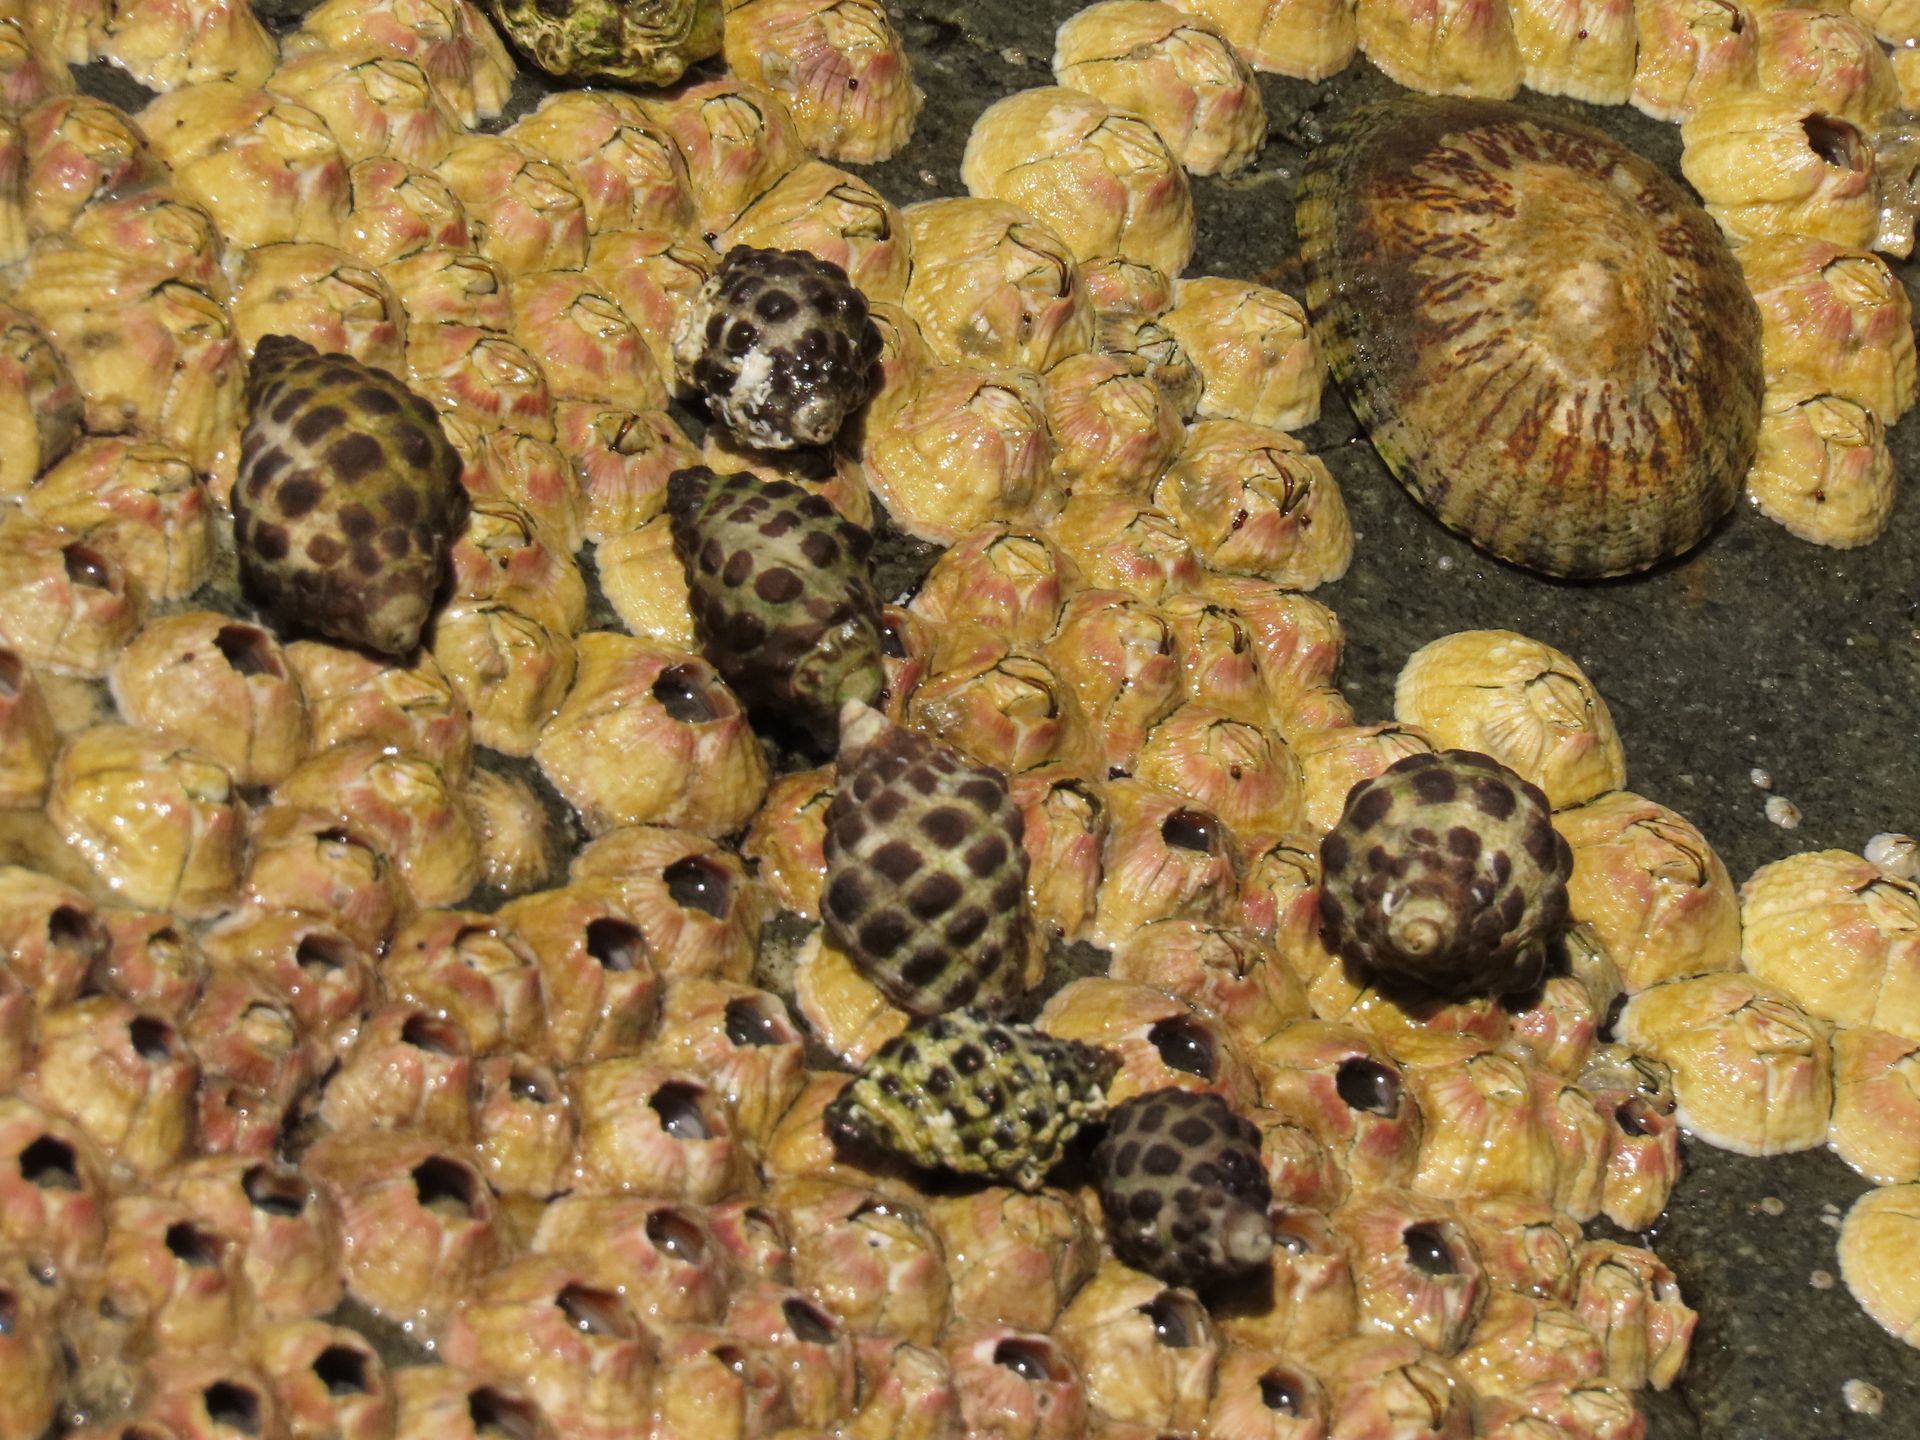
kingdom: Animalia
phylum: Mollusca
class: Gastropoda
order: Neogastropoda
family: Muricidae
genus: Tenguella
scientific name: Tenguella marginalba
